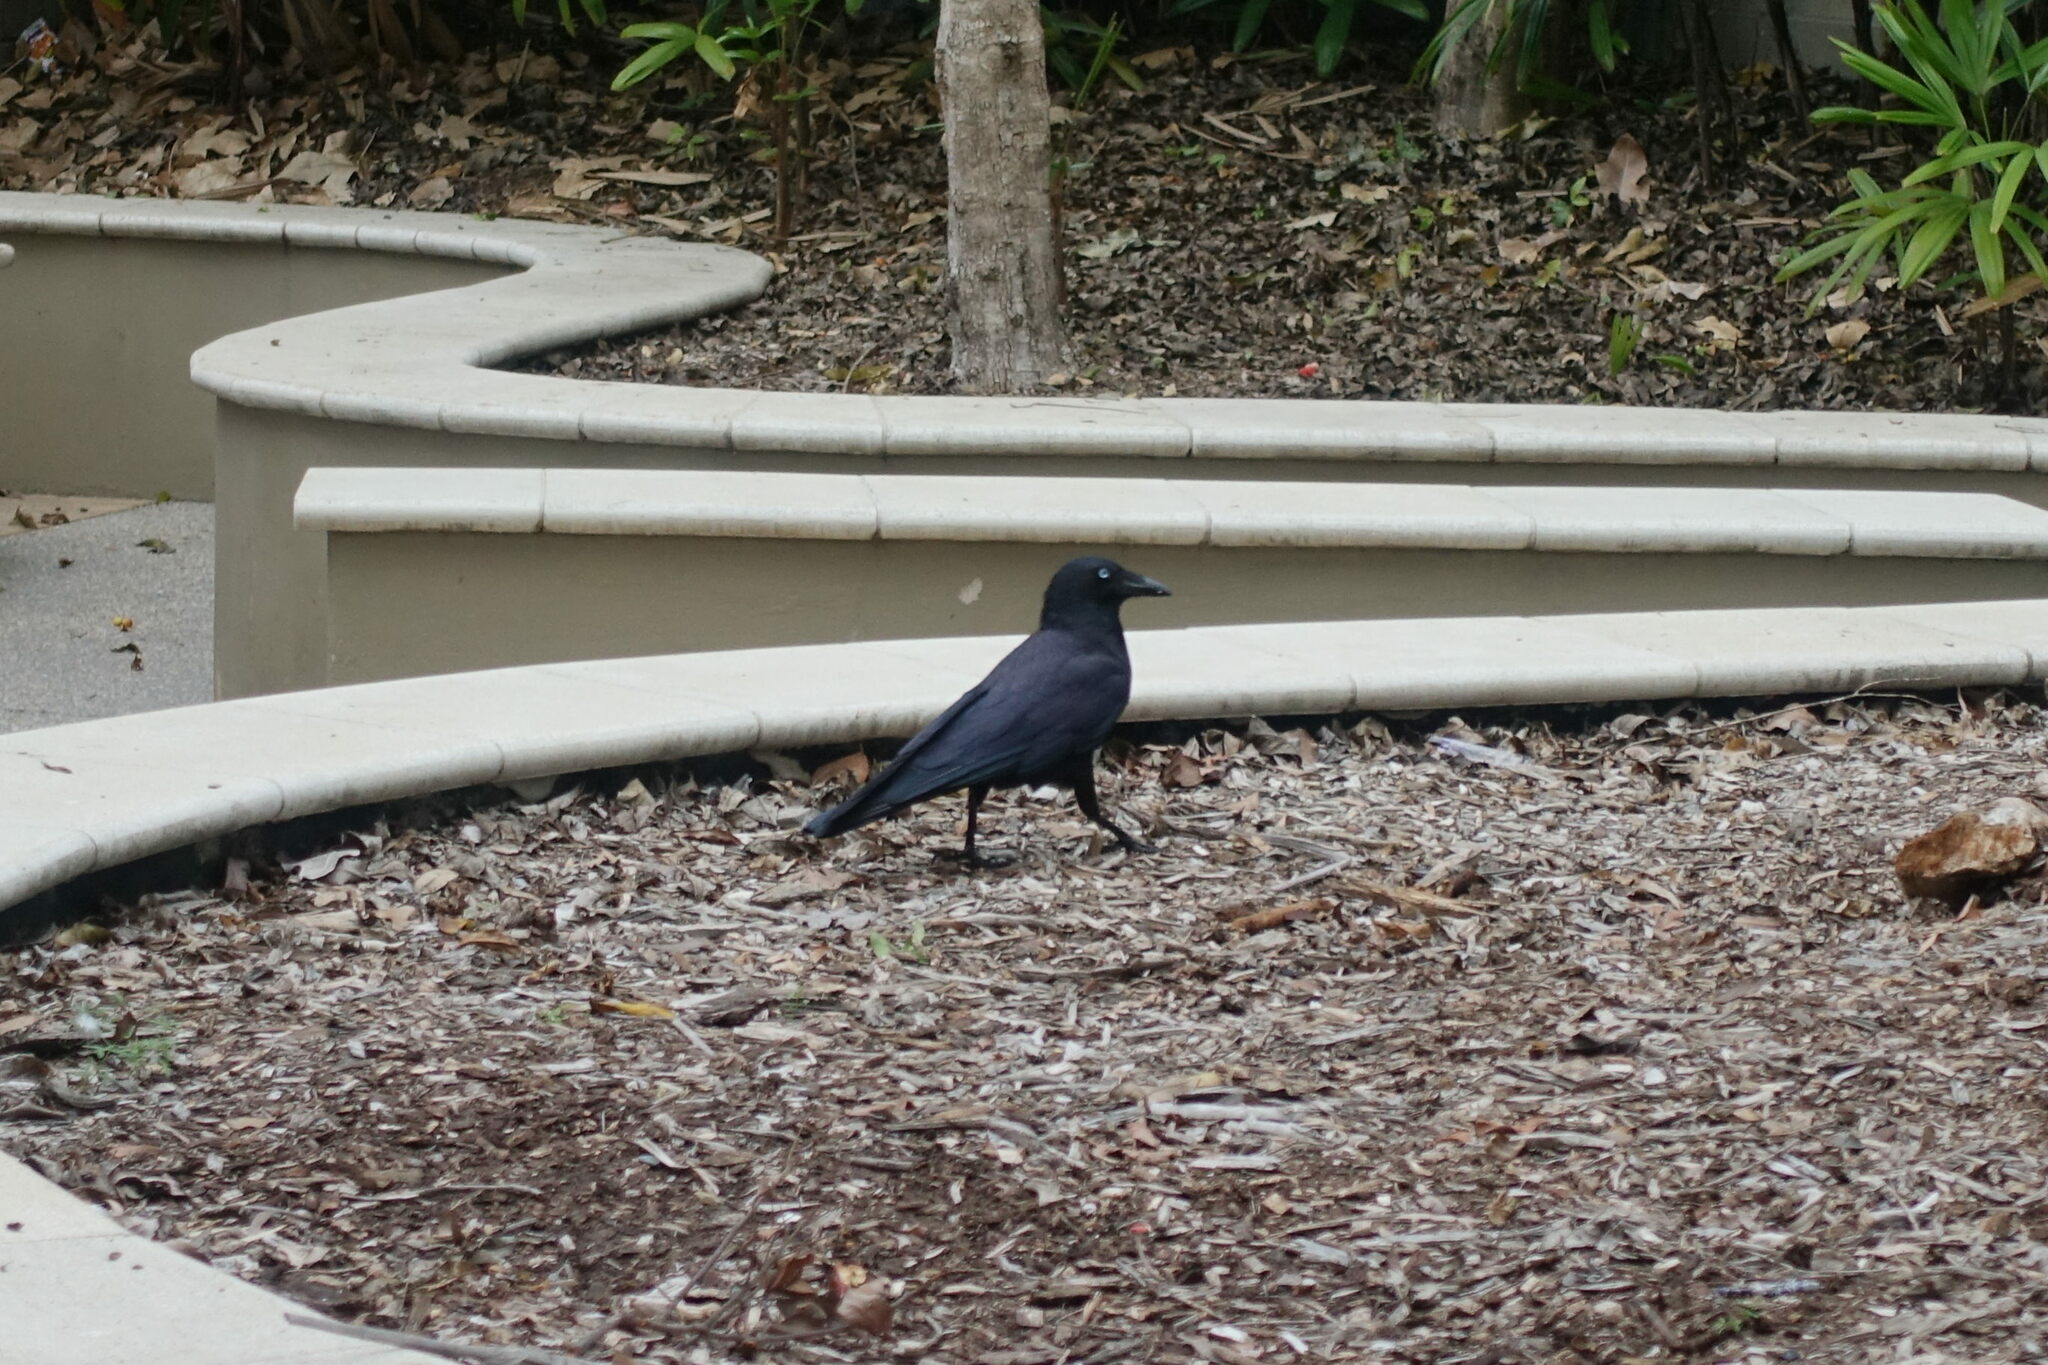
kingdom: Animalia
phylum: Chordata
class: Aves
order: Passeriformes
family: Corvidae
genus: Corvus
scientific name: Corvus orru
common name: Torresian crow
